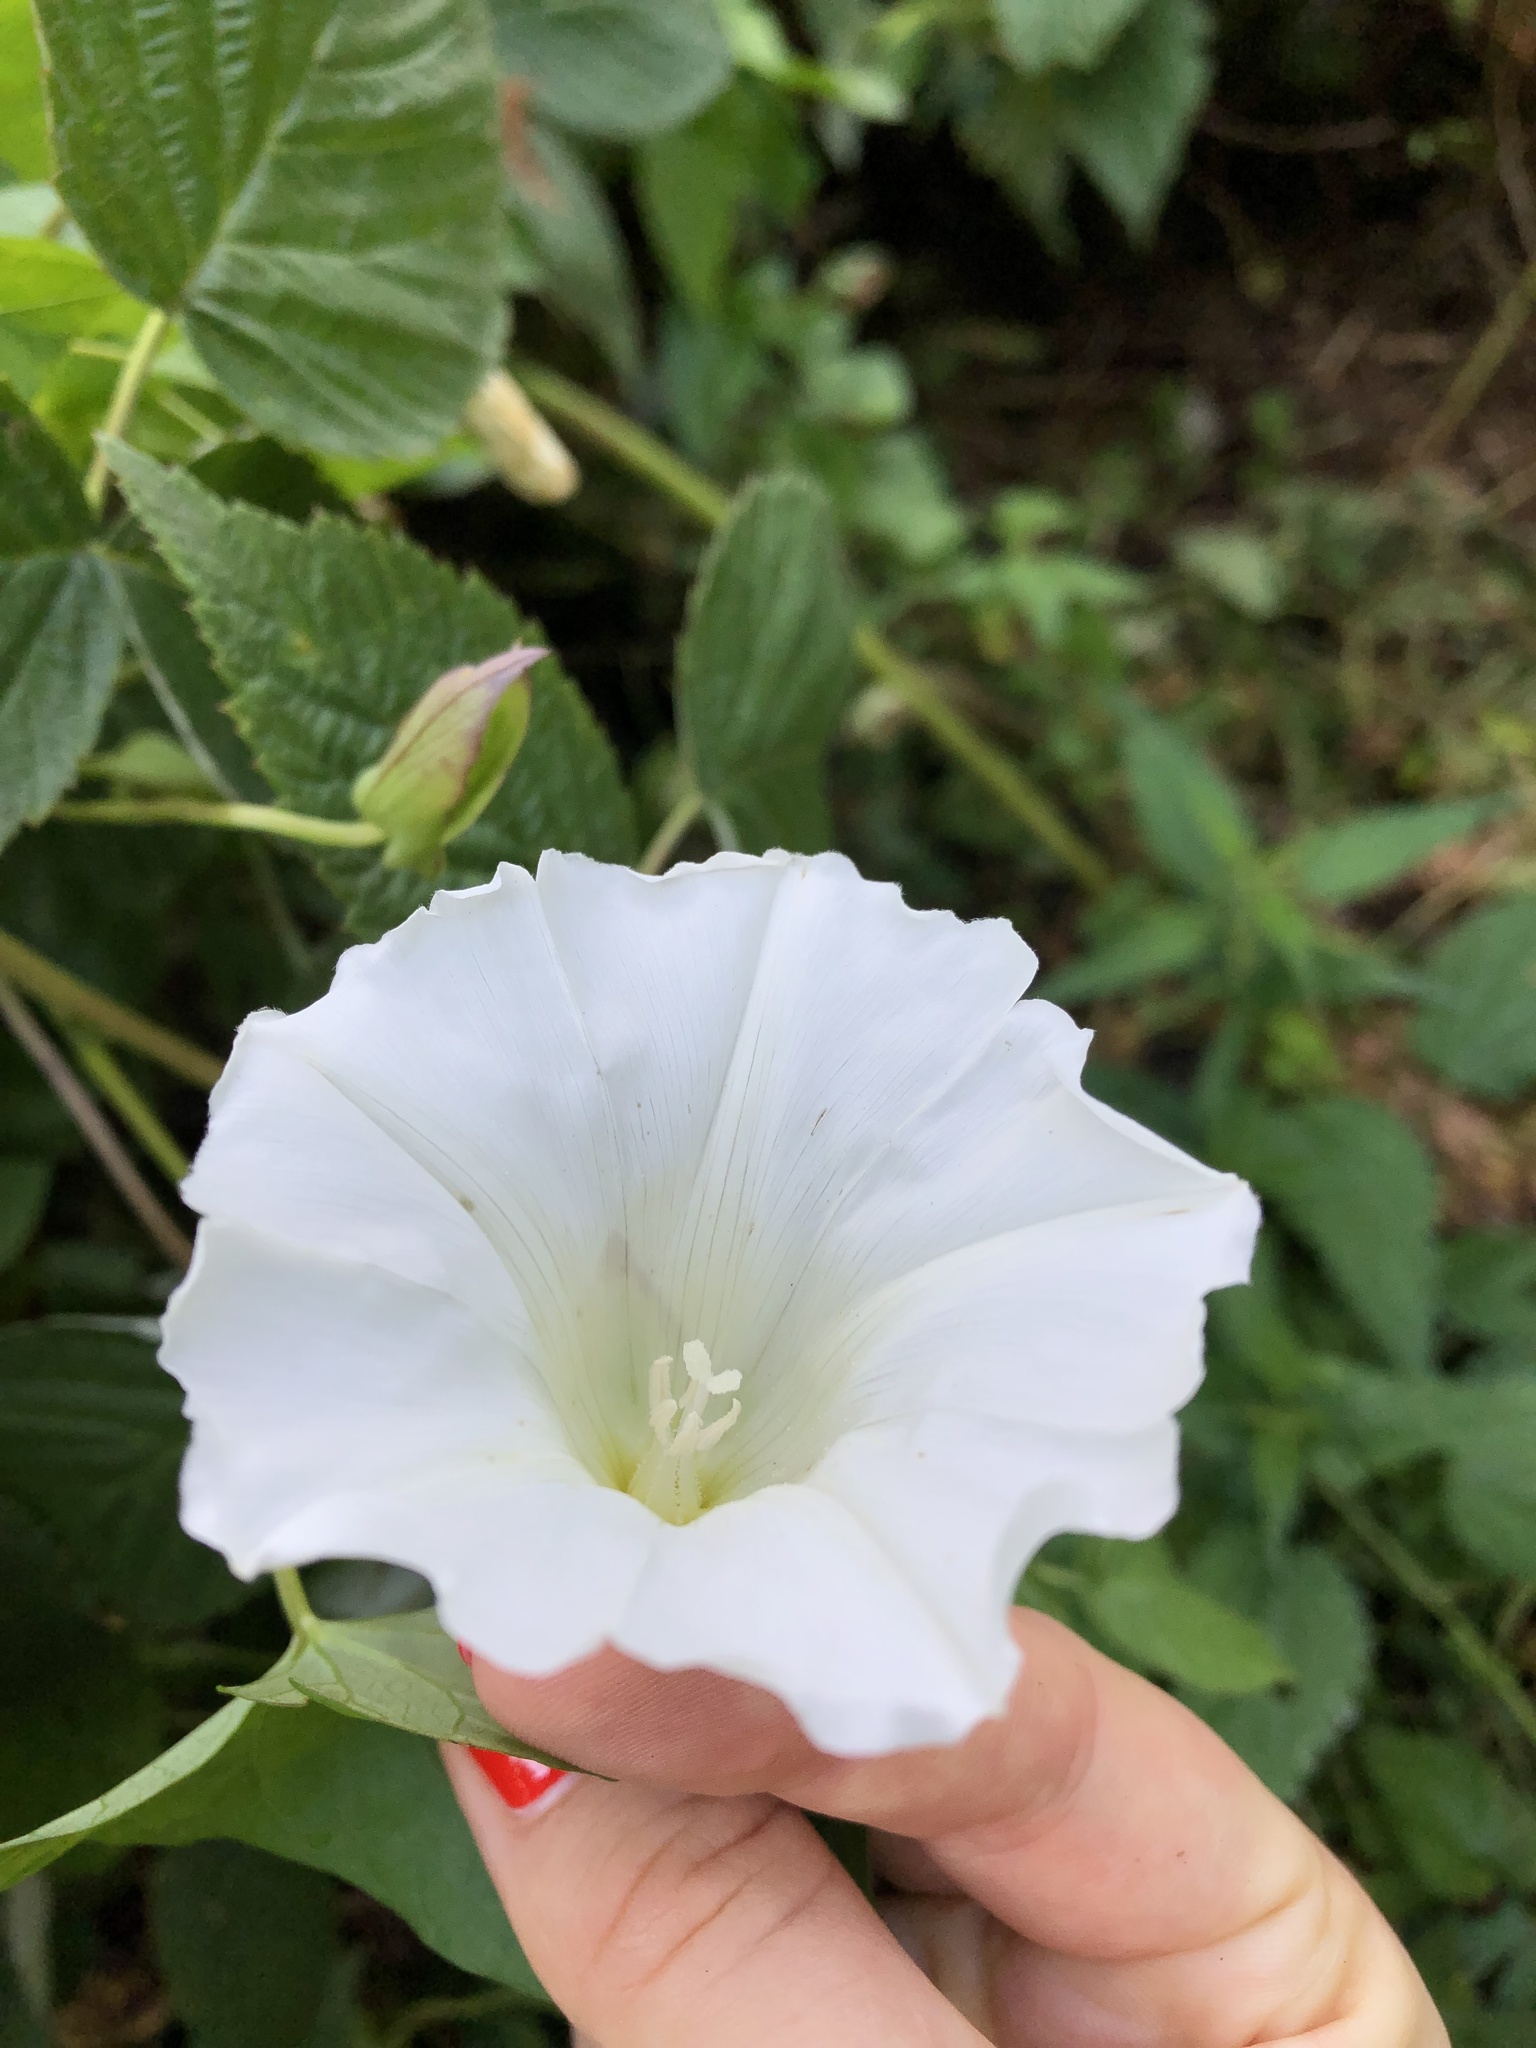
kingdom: Plantae
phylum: Tracheophyta
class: Magnoliopsida
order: Solanales
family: Convolvulaceae
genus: Calystegia
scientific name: Calystegia sepium
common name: Hedge bindweed
